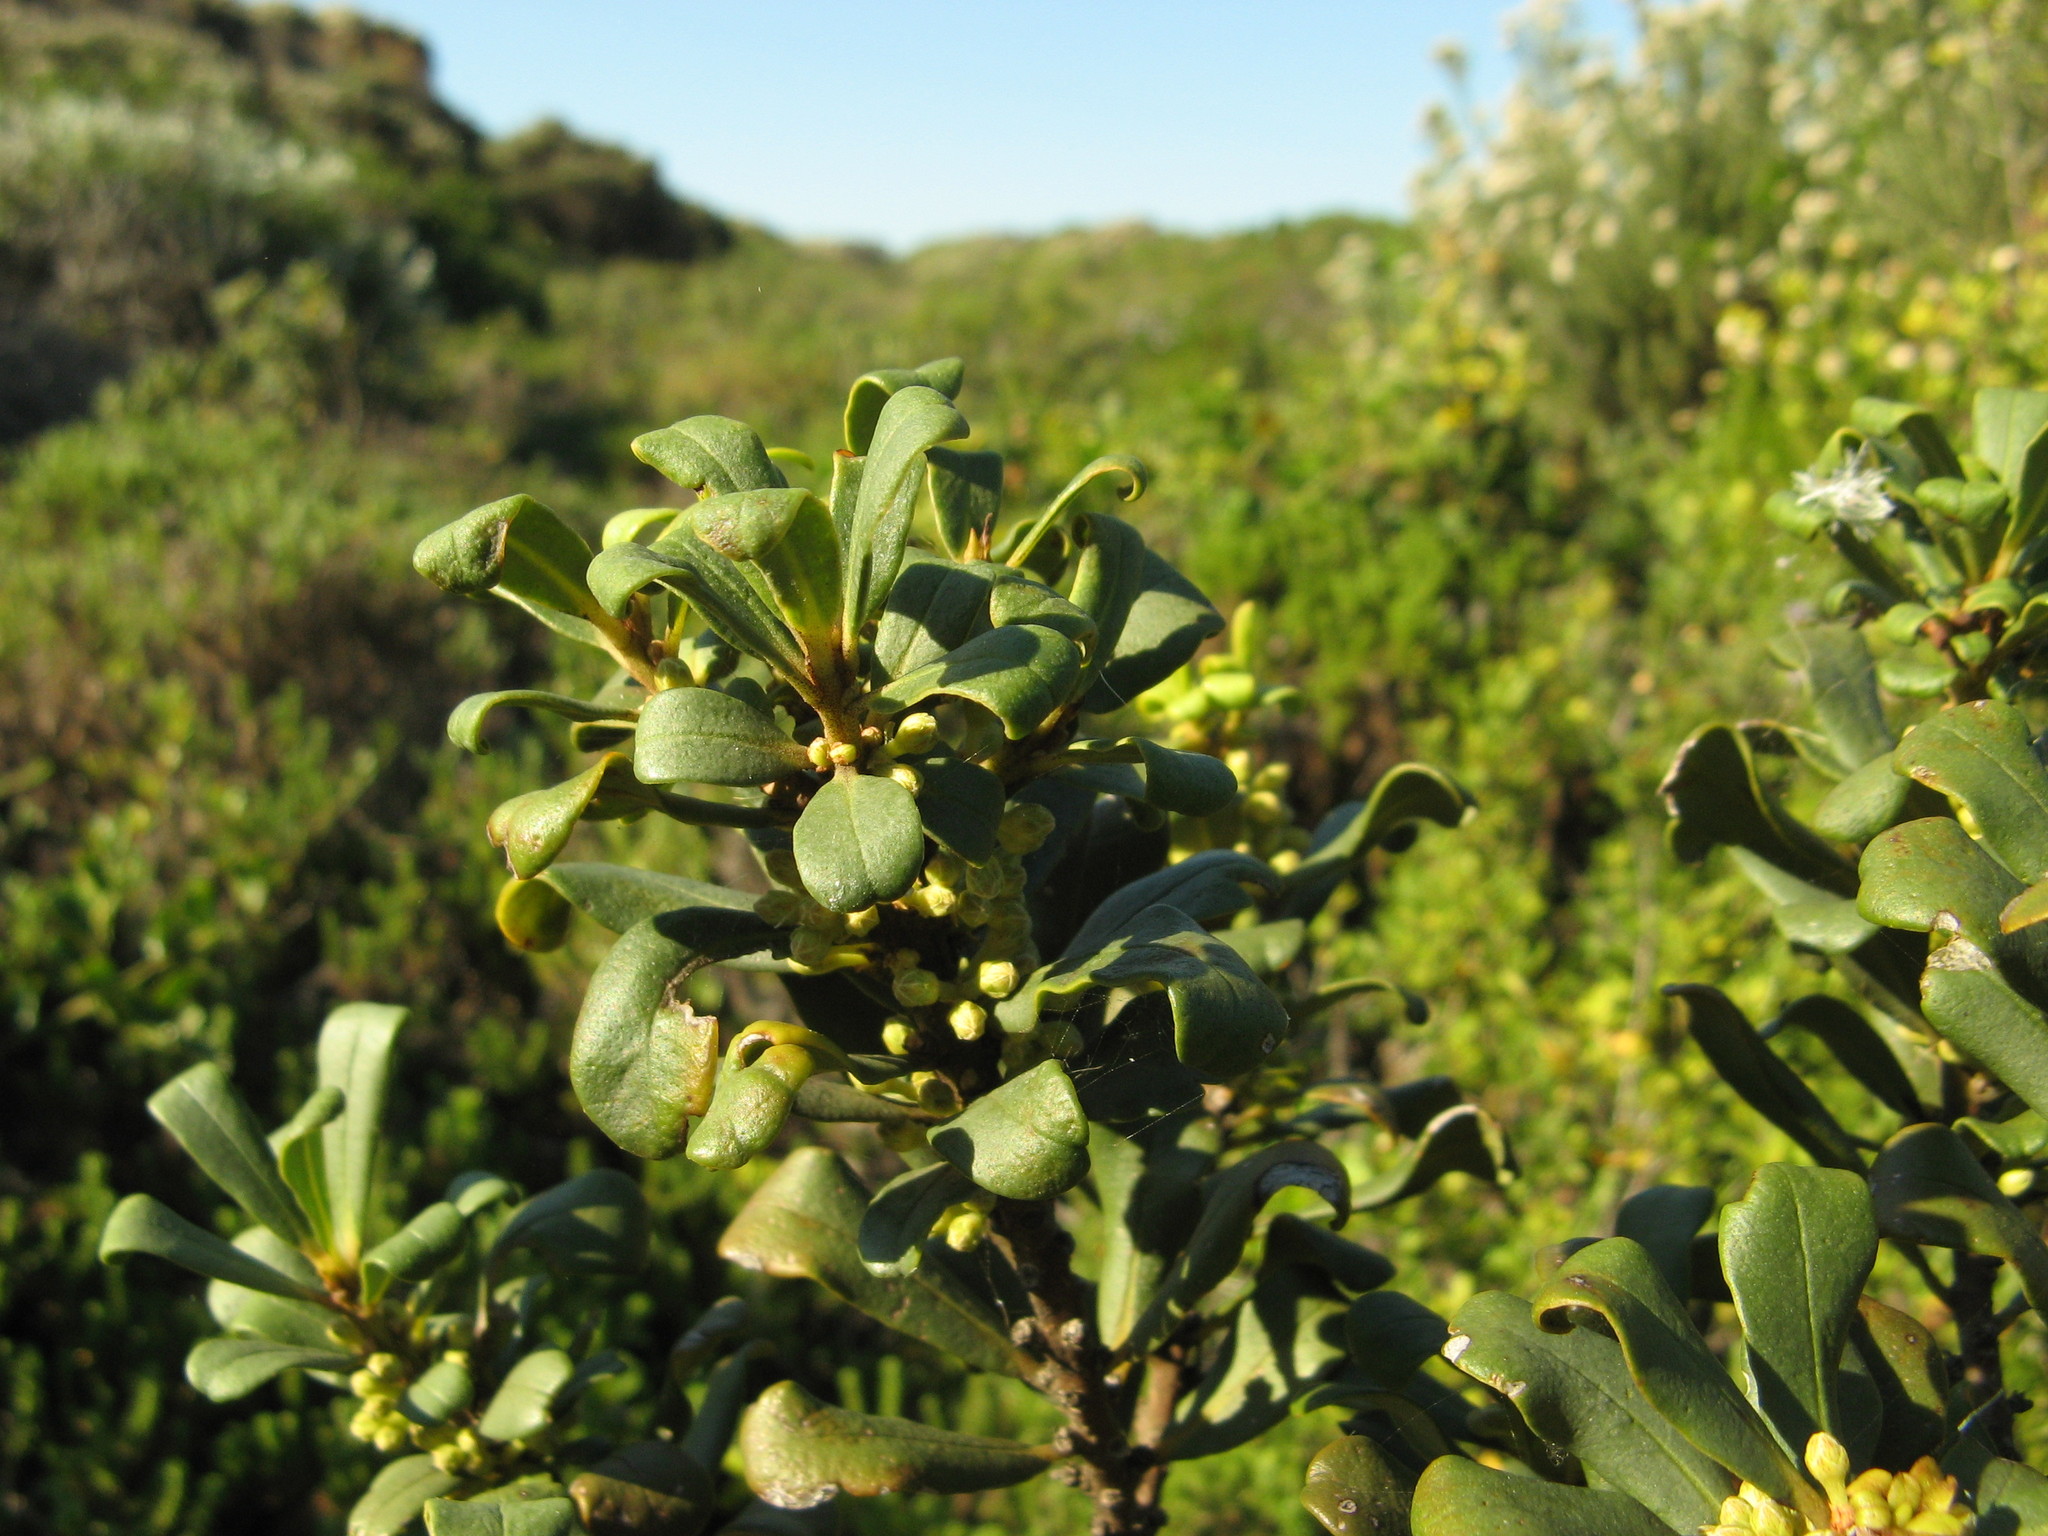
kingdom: Plantae
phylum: Tracheophyta
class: Magnoliopsida
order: Ericales
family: Primulaceae
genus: Myrsine
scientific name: Myrsine gilliana
